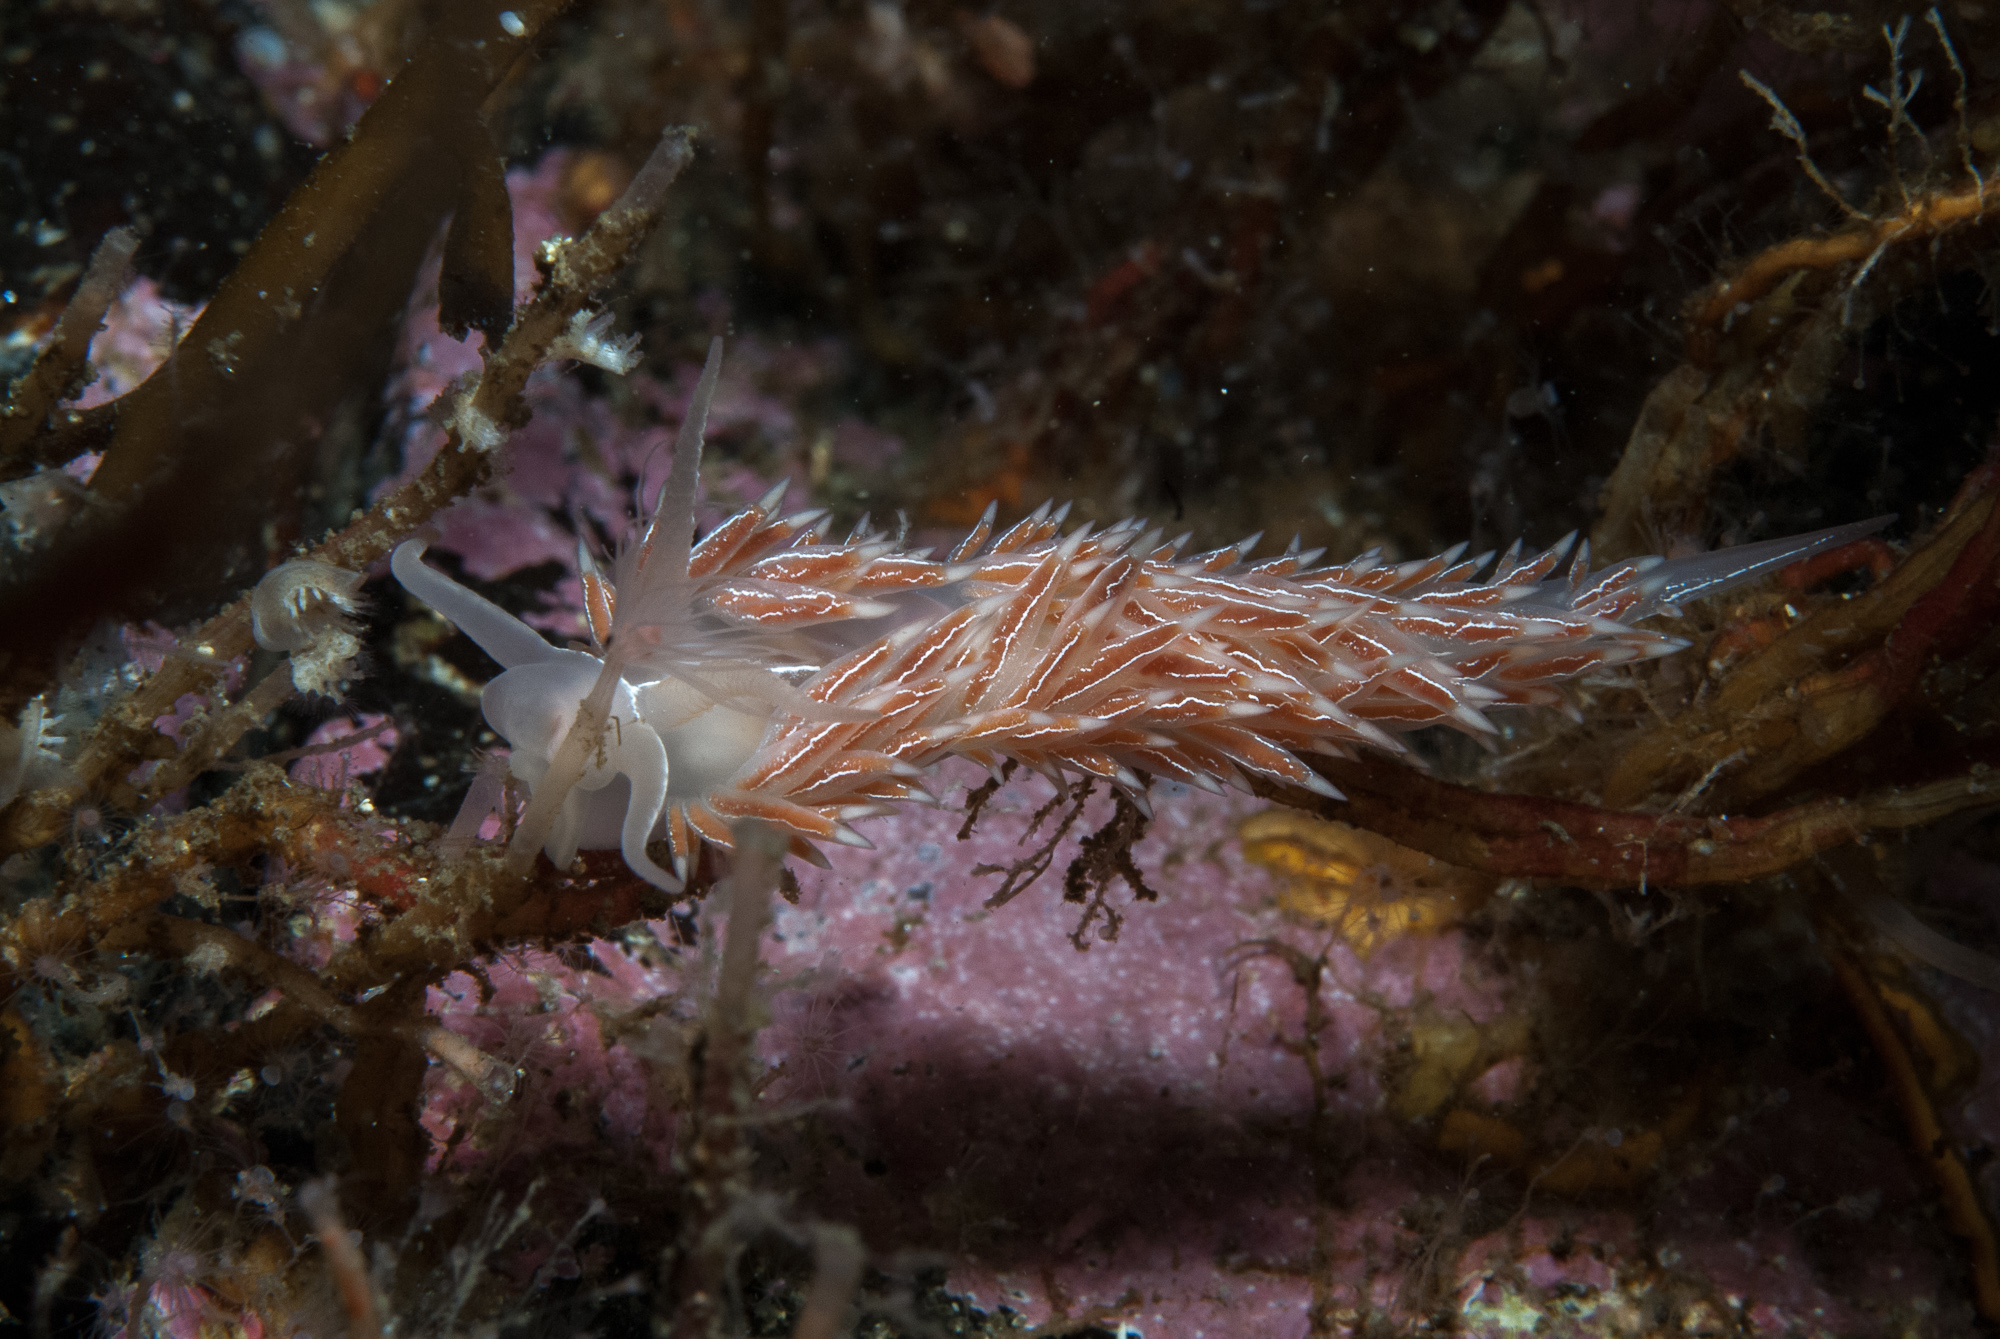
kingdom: Animalia
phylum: Mollusca
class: Gastropoda
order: Nudibranchia
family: Coryphellidae
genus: Coryphella
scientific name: Coryphella chriskaugei
